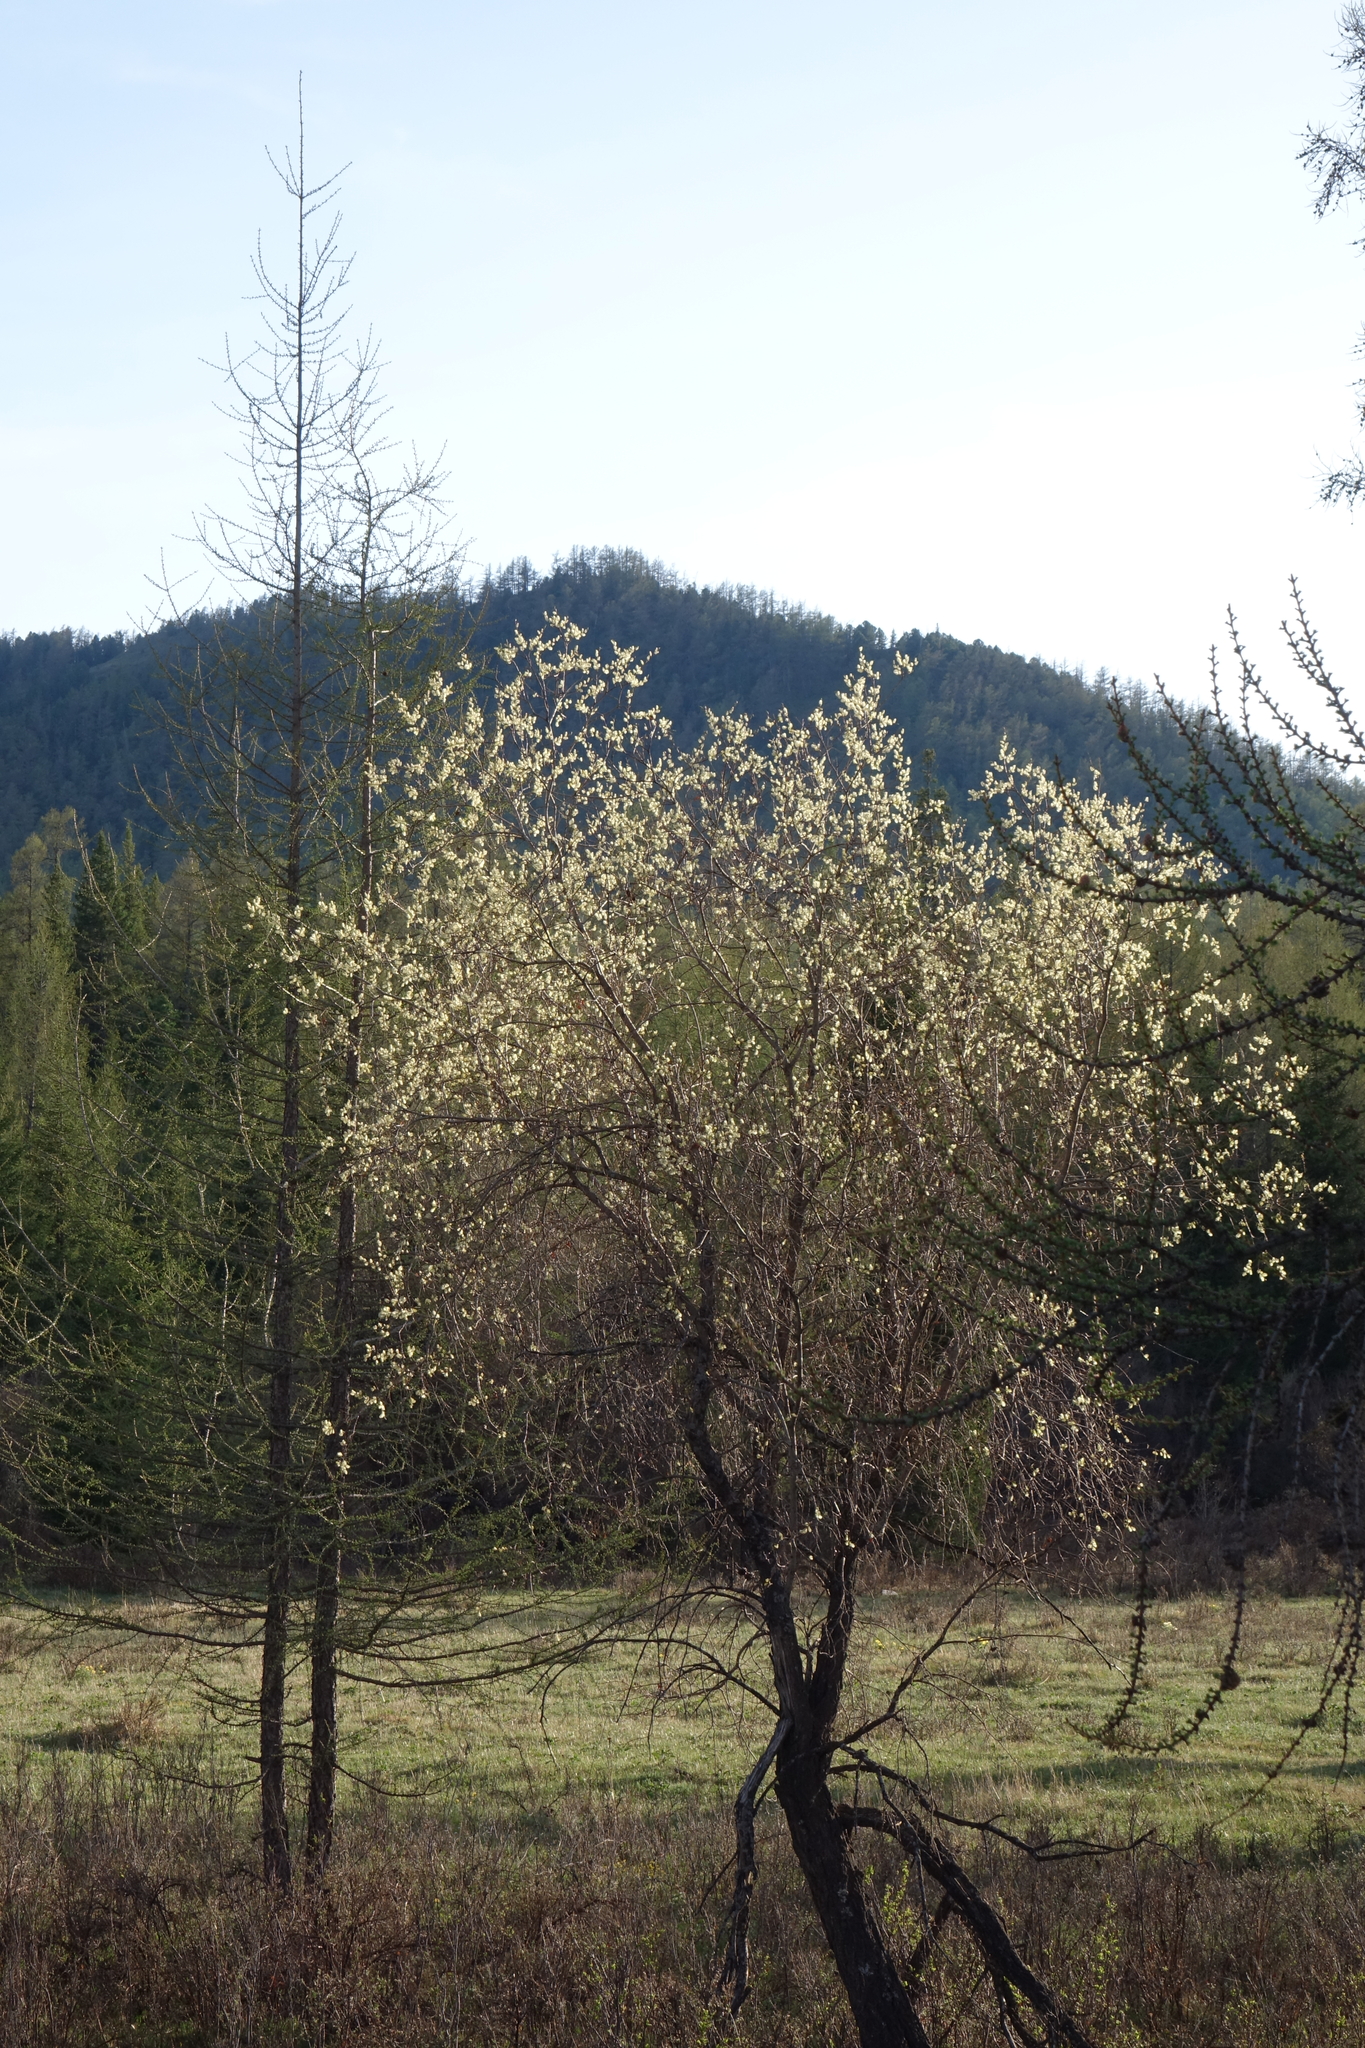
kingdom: Plantae
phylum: Tracheophyta
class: Magnoliopsida
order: Malpighiales
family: Salicaceae
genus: Salix
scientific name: Salix caprea
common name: Goat willow
